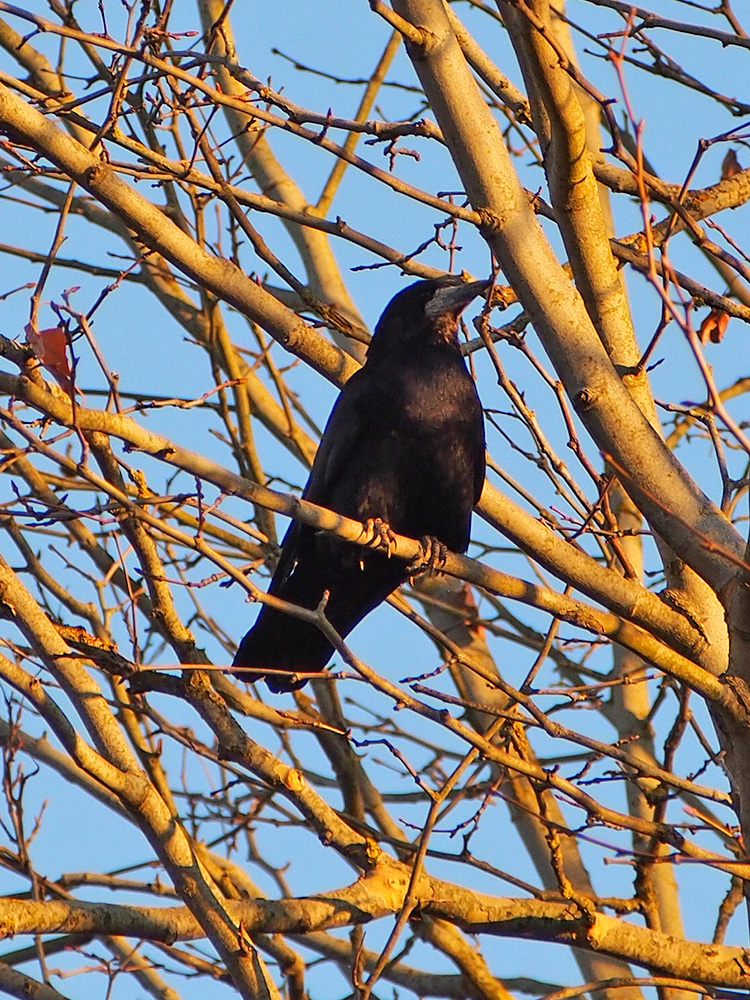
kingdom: Animalia
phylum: Chordata
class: Aves
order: Passeriformes
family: Corvidae
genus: Corvus
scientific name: Corvus frugilegus
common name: Rook
